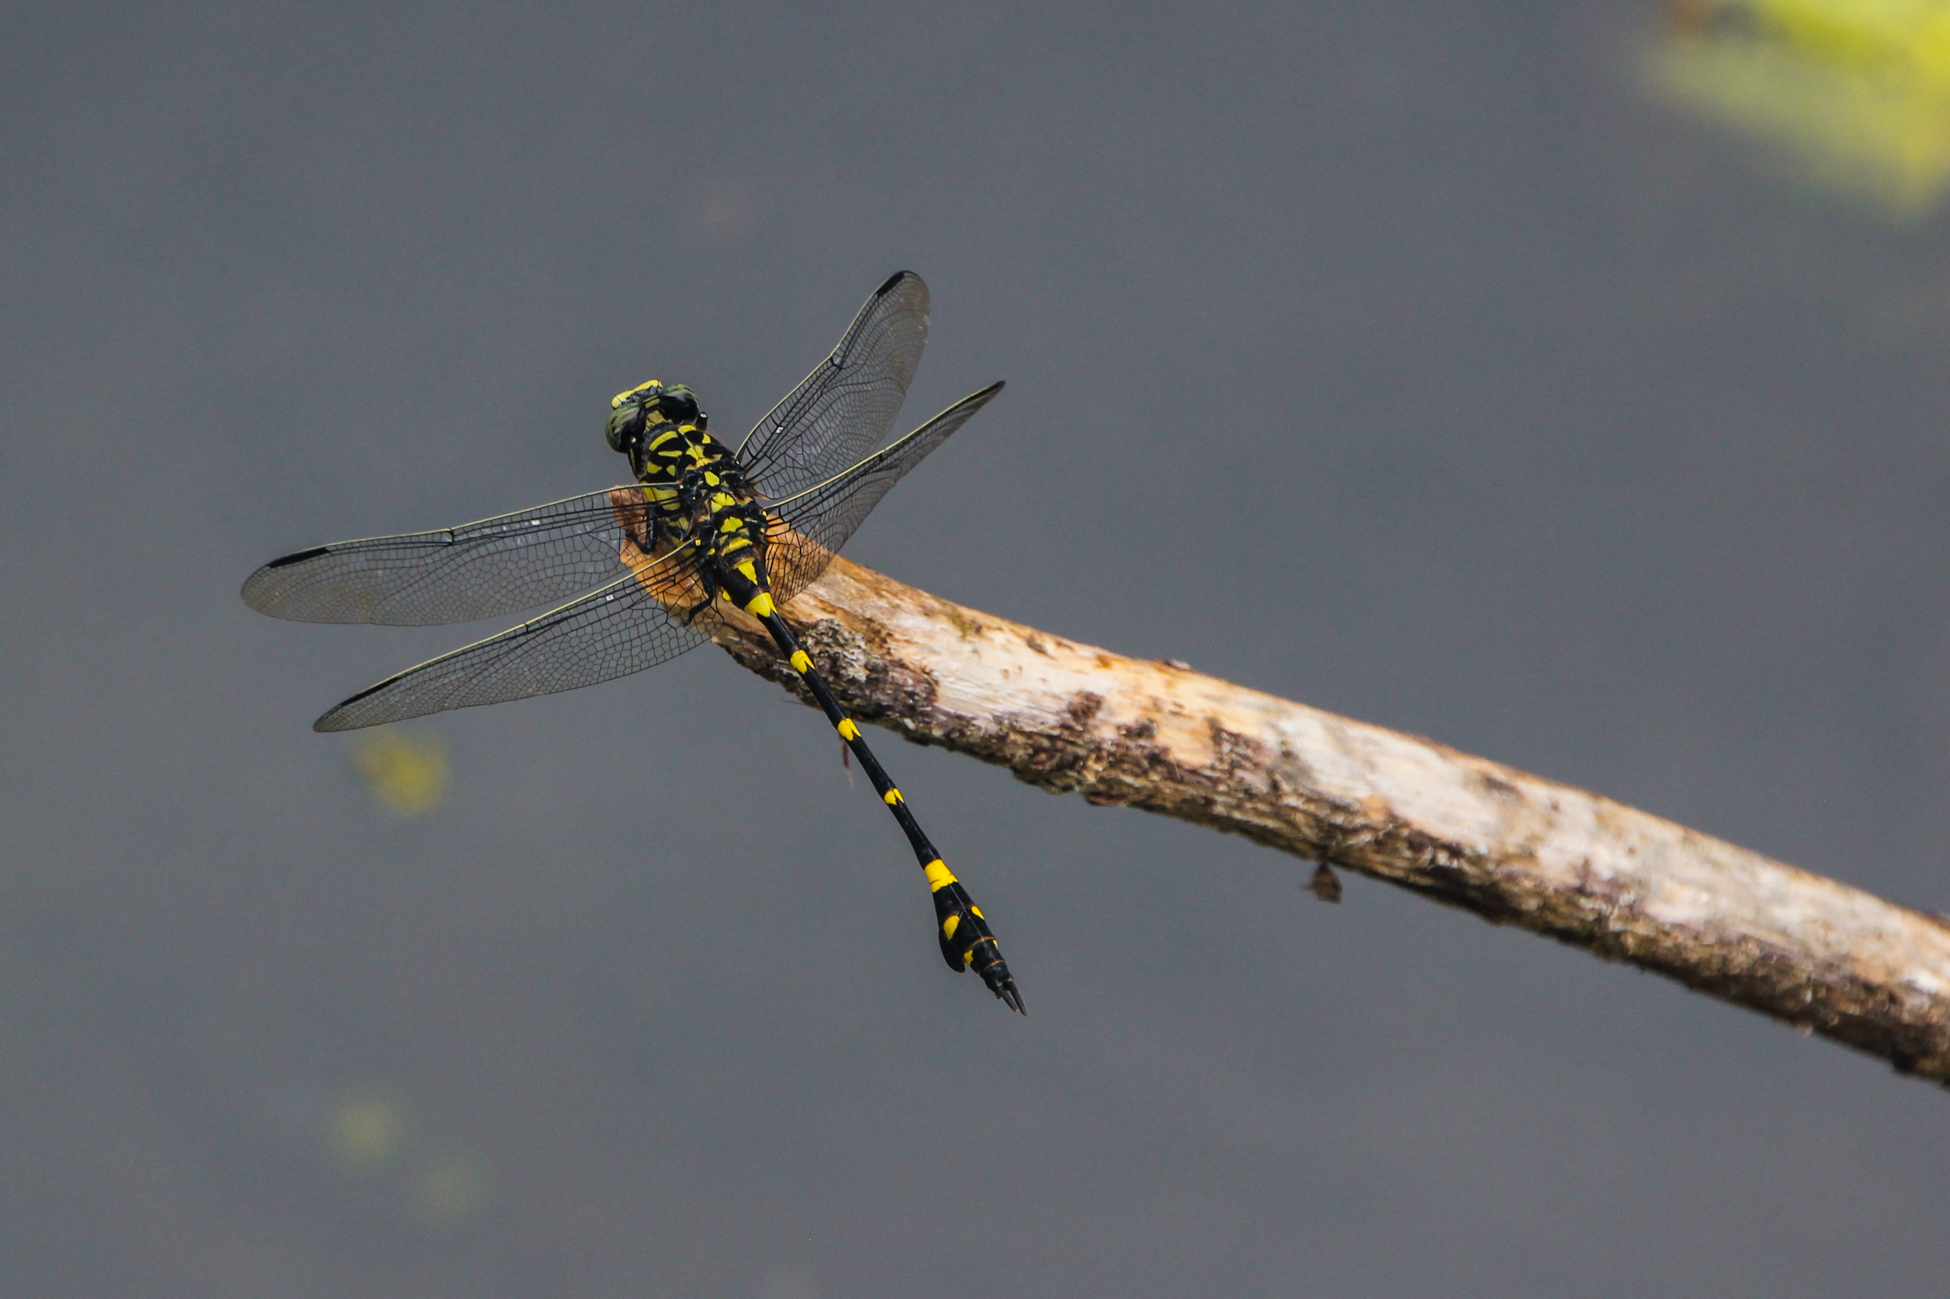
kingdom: Animalia
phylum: Arthropoda
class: Insecta
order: Odonata
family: Gomphidae
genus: Ictinogomphus
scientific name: Ictinogomphus rapax
